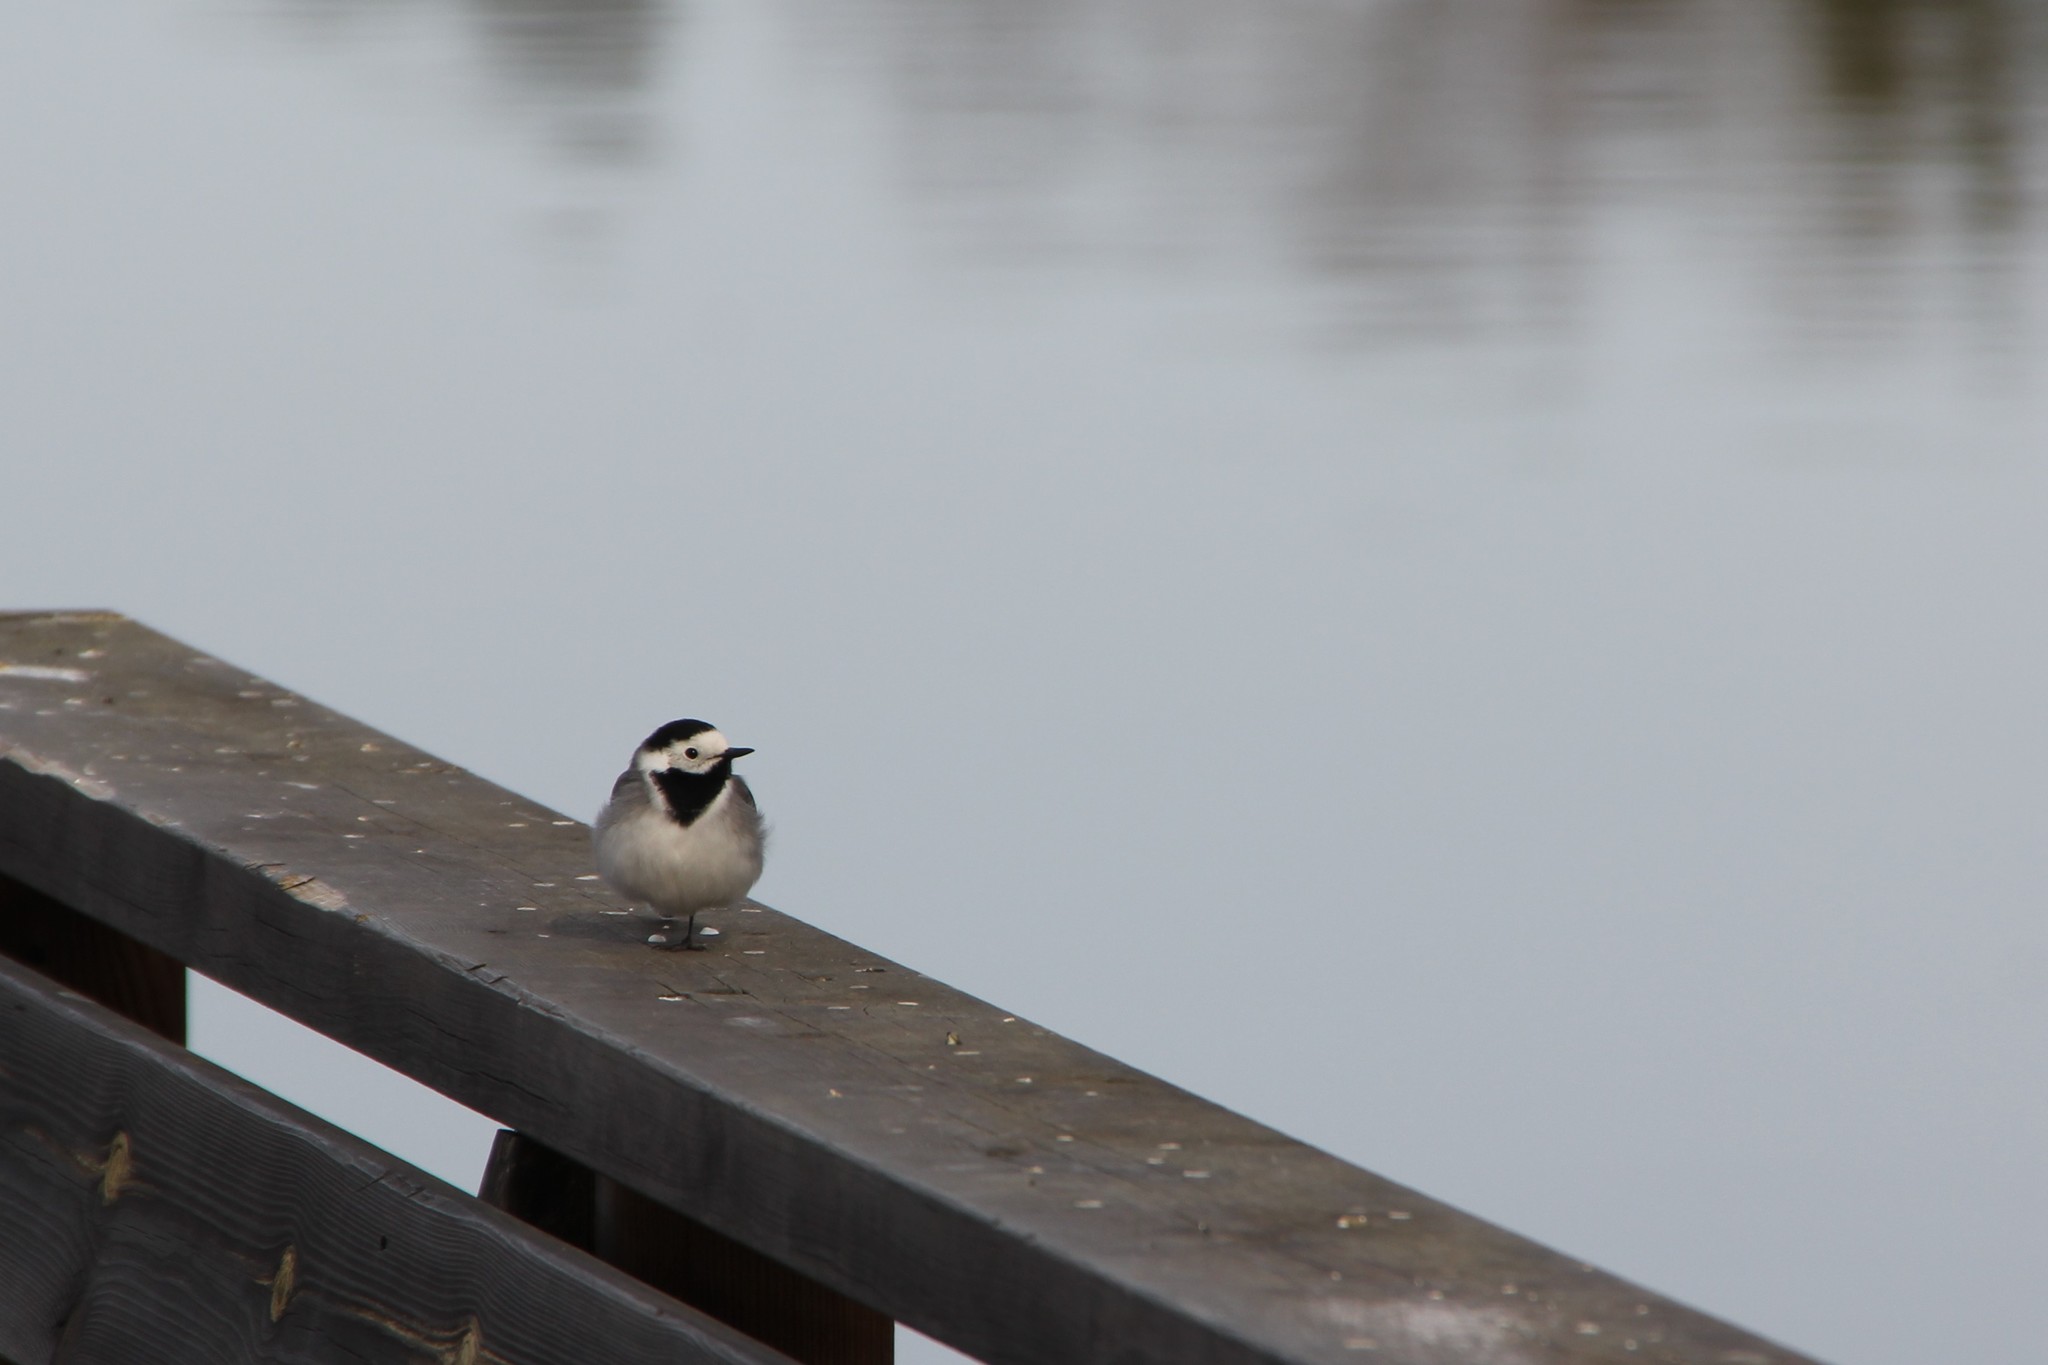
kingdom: Animalia
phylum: Chordata
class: Aves
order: Passeriformes
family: Motacillidae
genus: Motacilla
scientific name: Motacilla alba
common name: White wagtail
